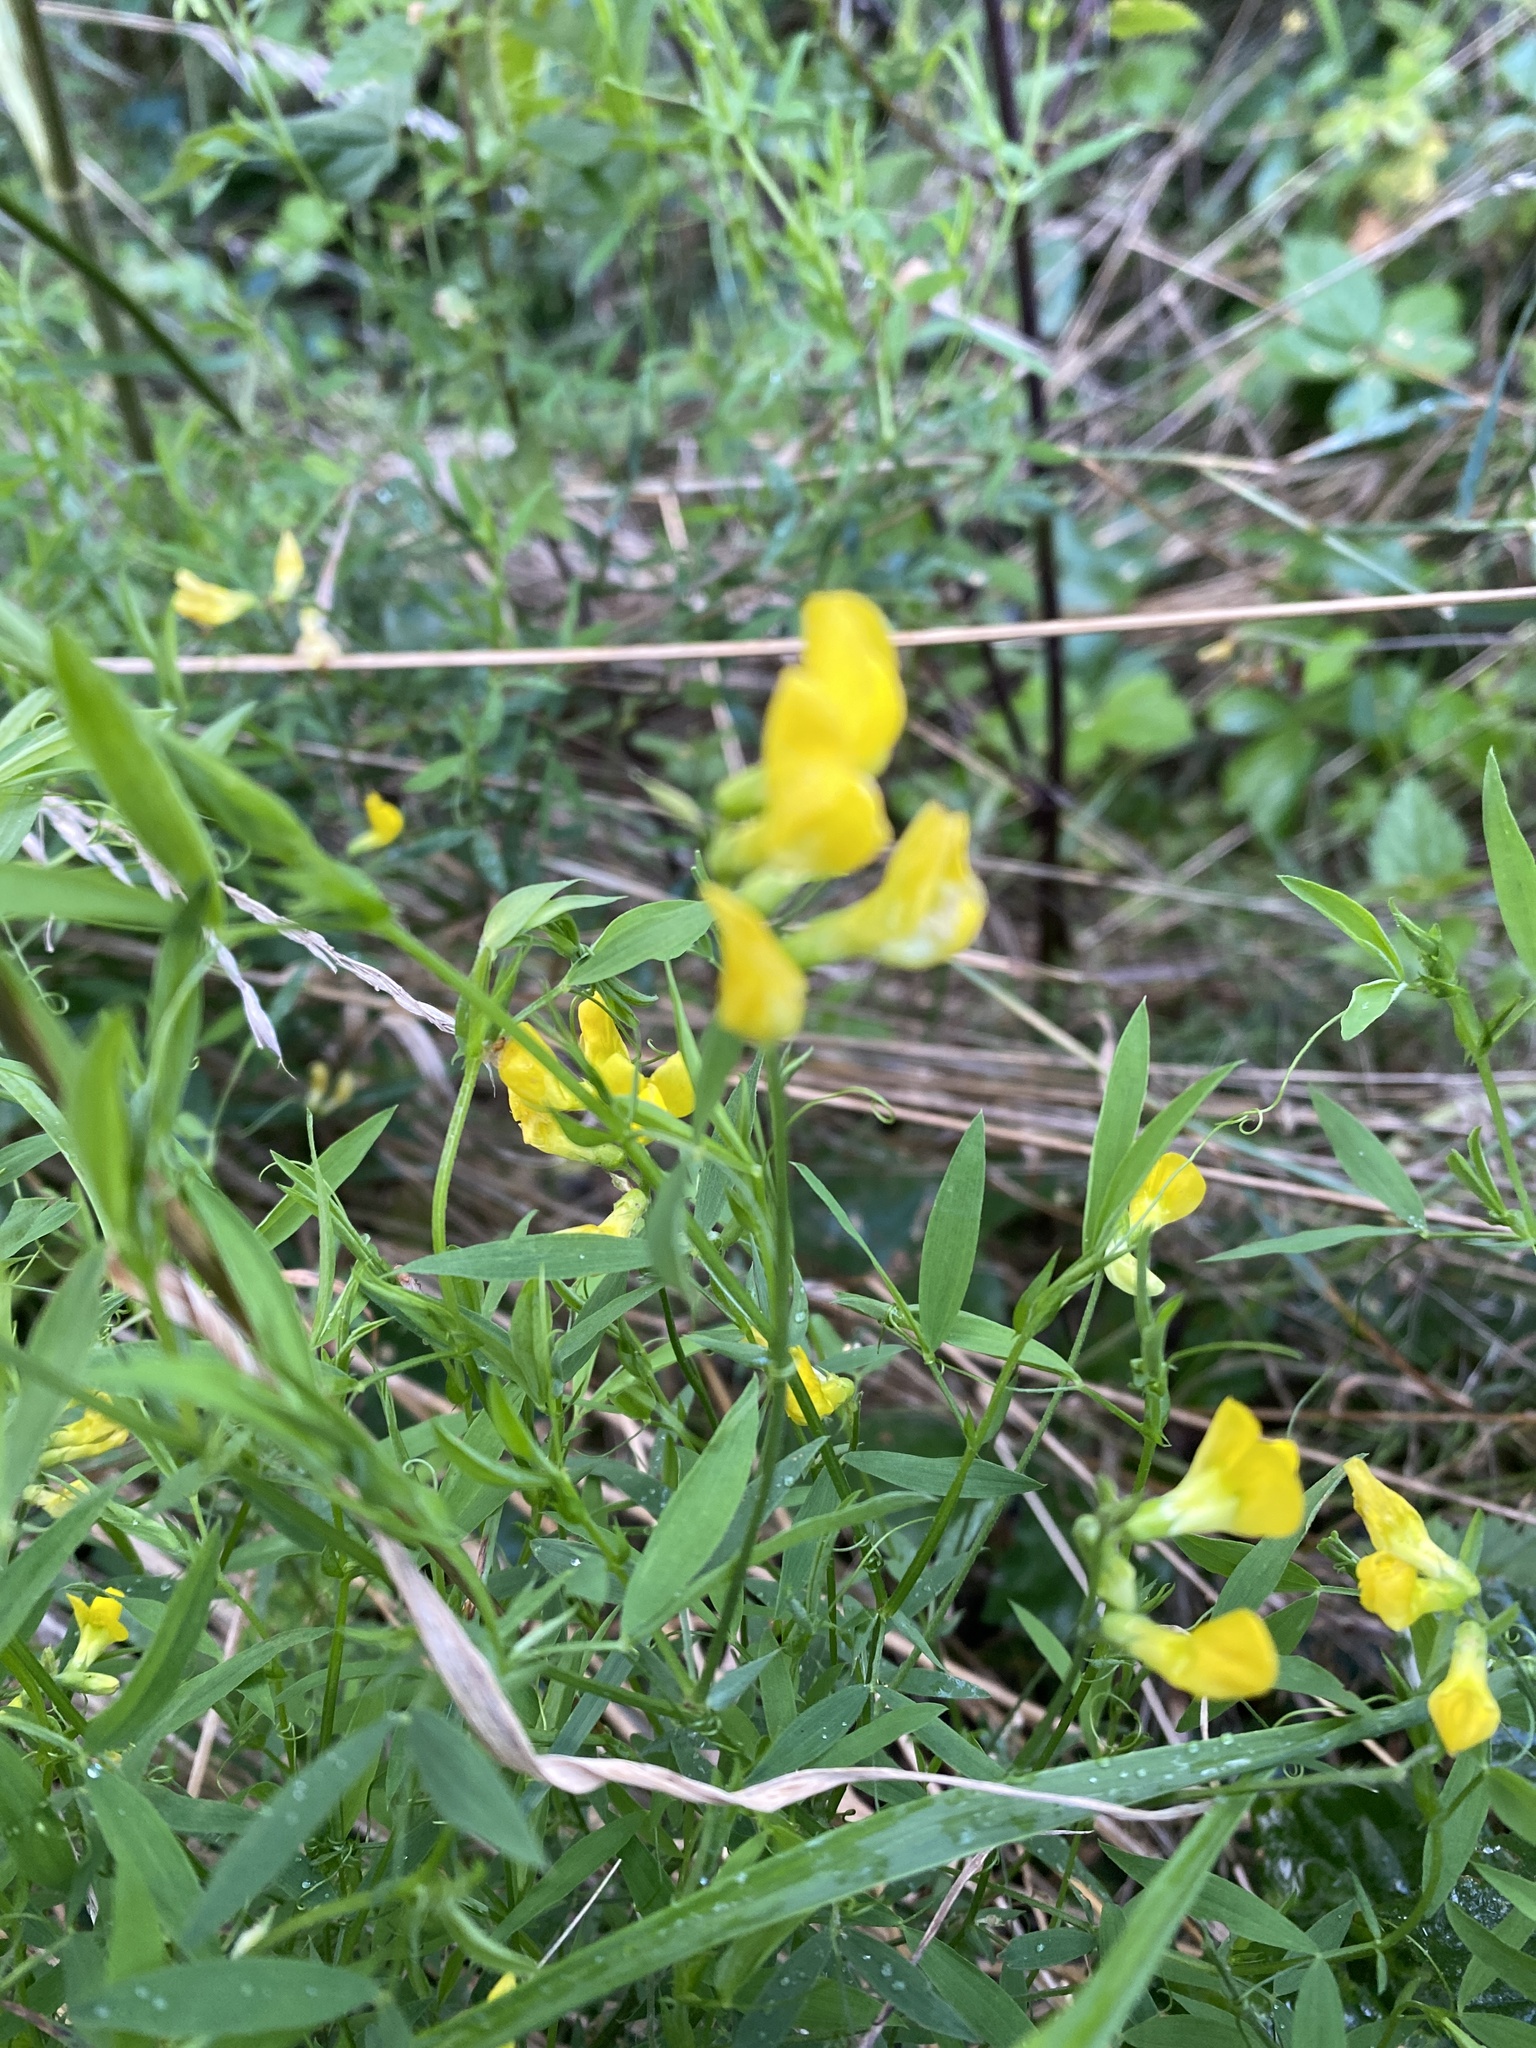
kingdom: Plantae
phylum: Tracheophyta
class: Magnoliopsida
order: Fabales
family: Fabaceae
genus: Lathyrus
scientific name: Lathyrus pratensis
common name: Meadow vetchling
